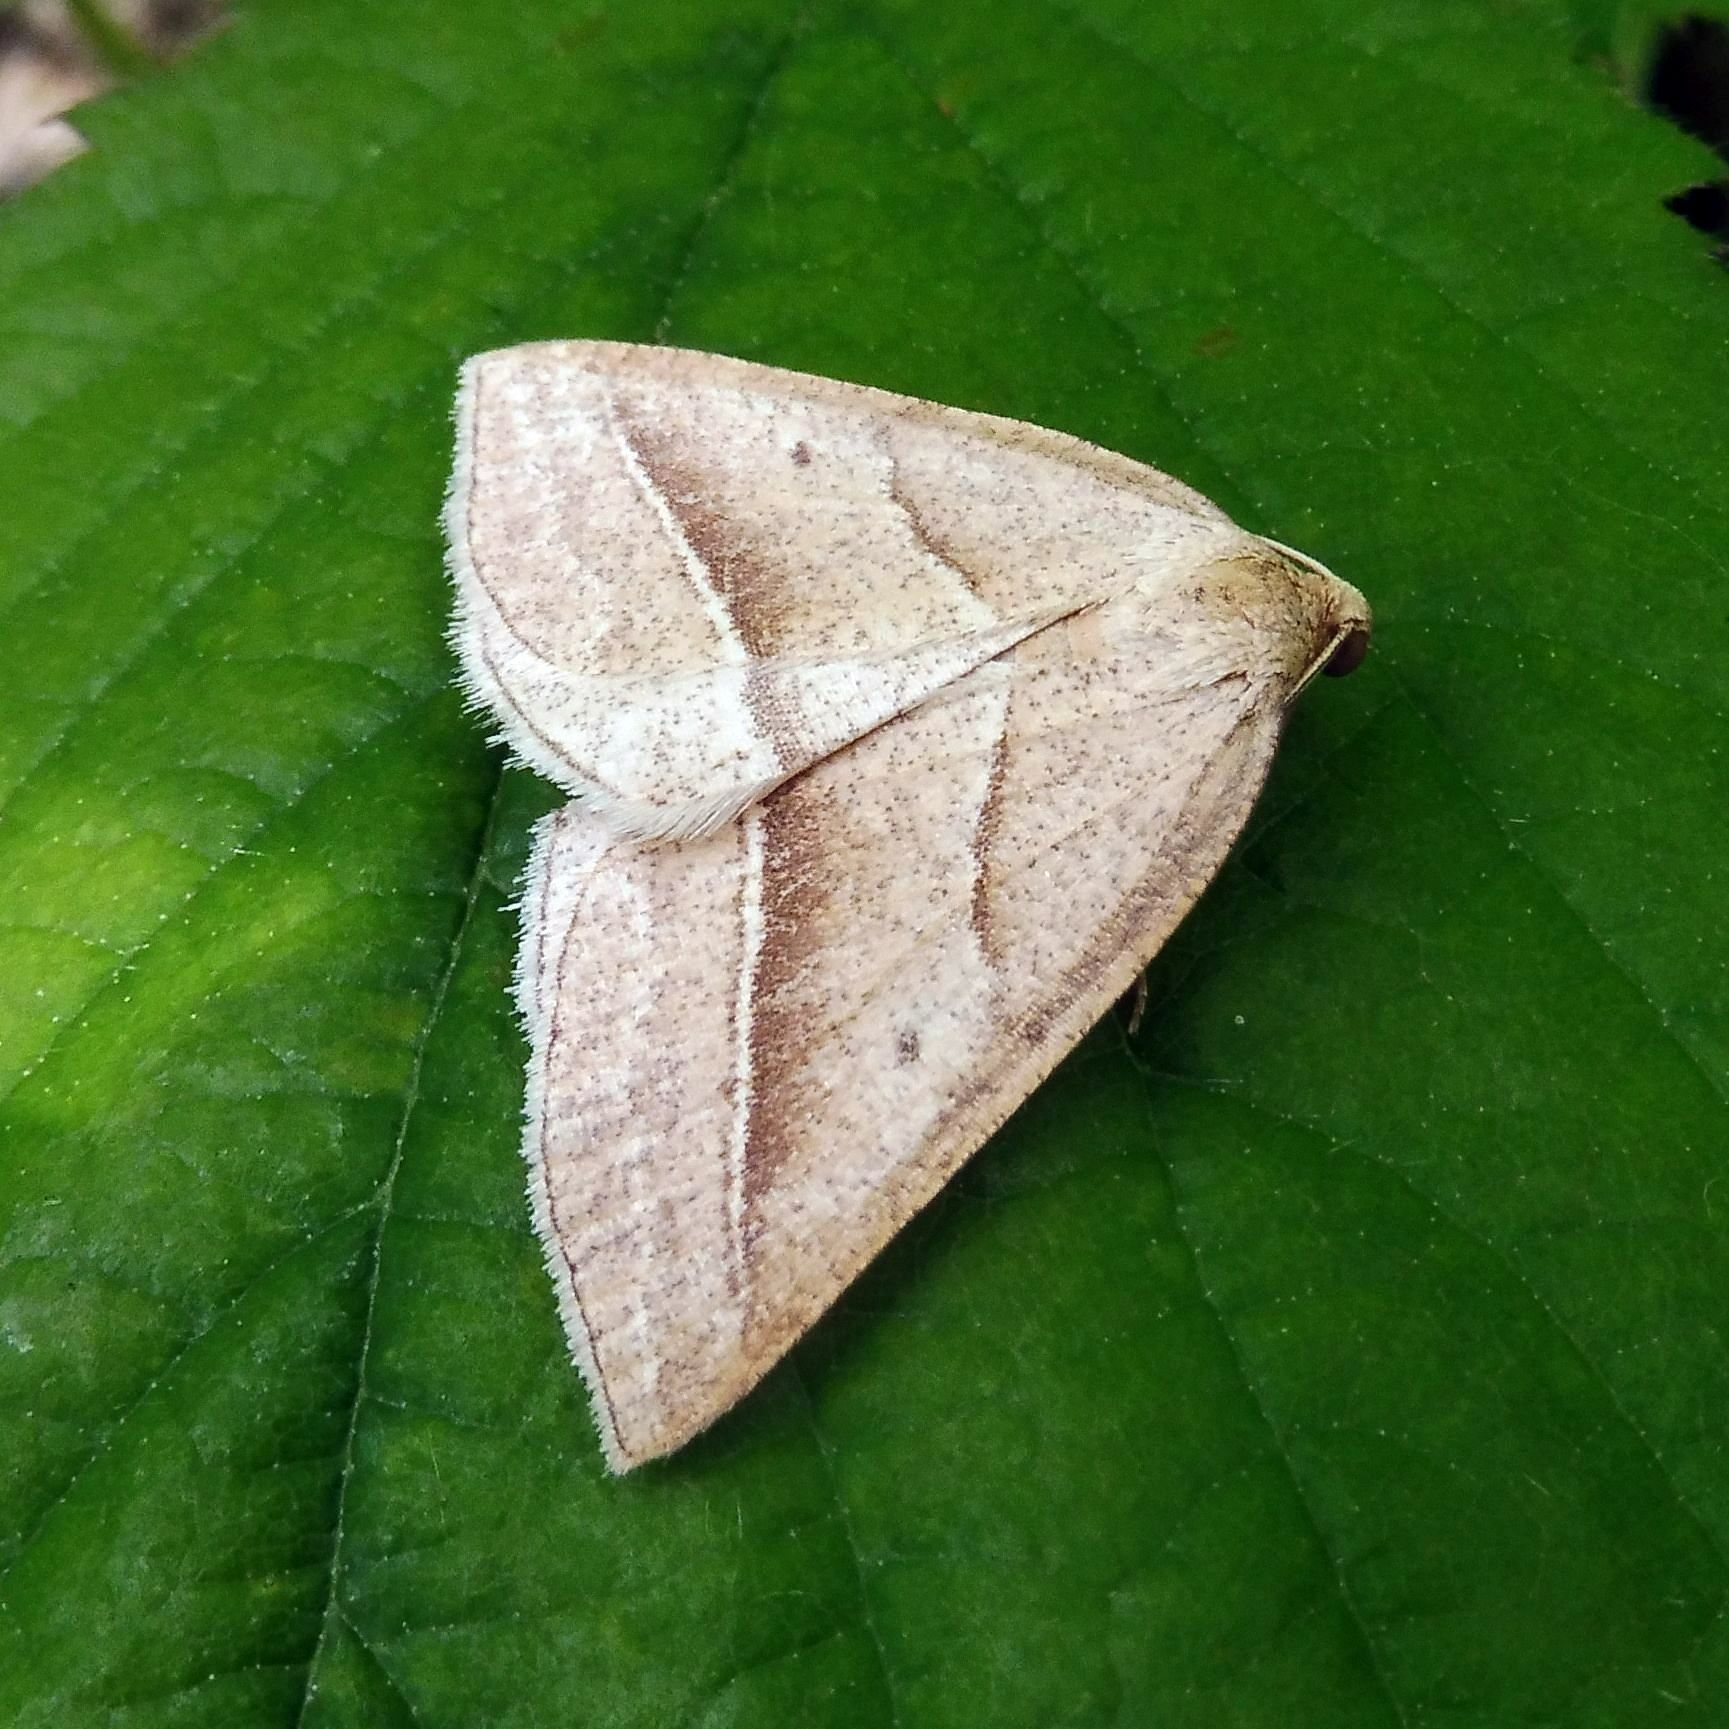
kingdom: Animalia
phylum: Arthropoda
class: Insecta
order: Lepidoptera
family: Pterophoridae
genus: Pterophorus
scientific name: Pterophorus Petrophora chlorosata
